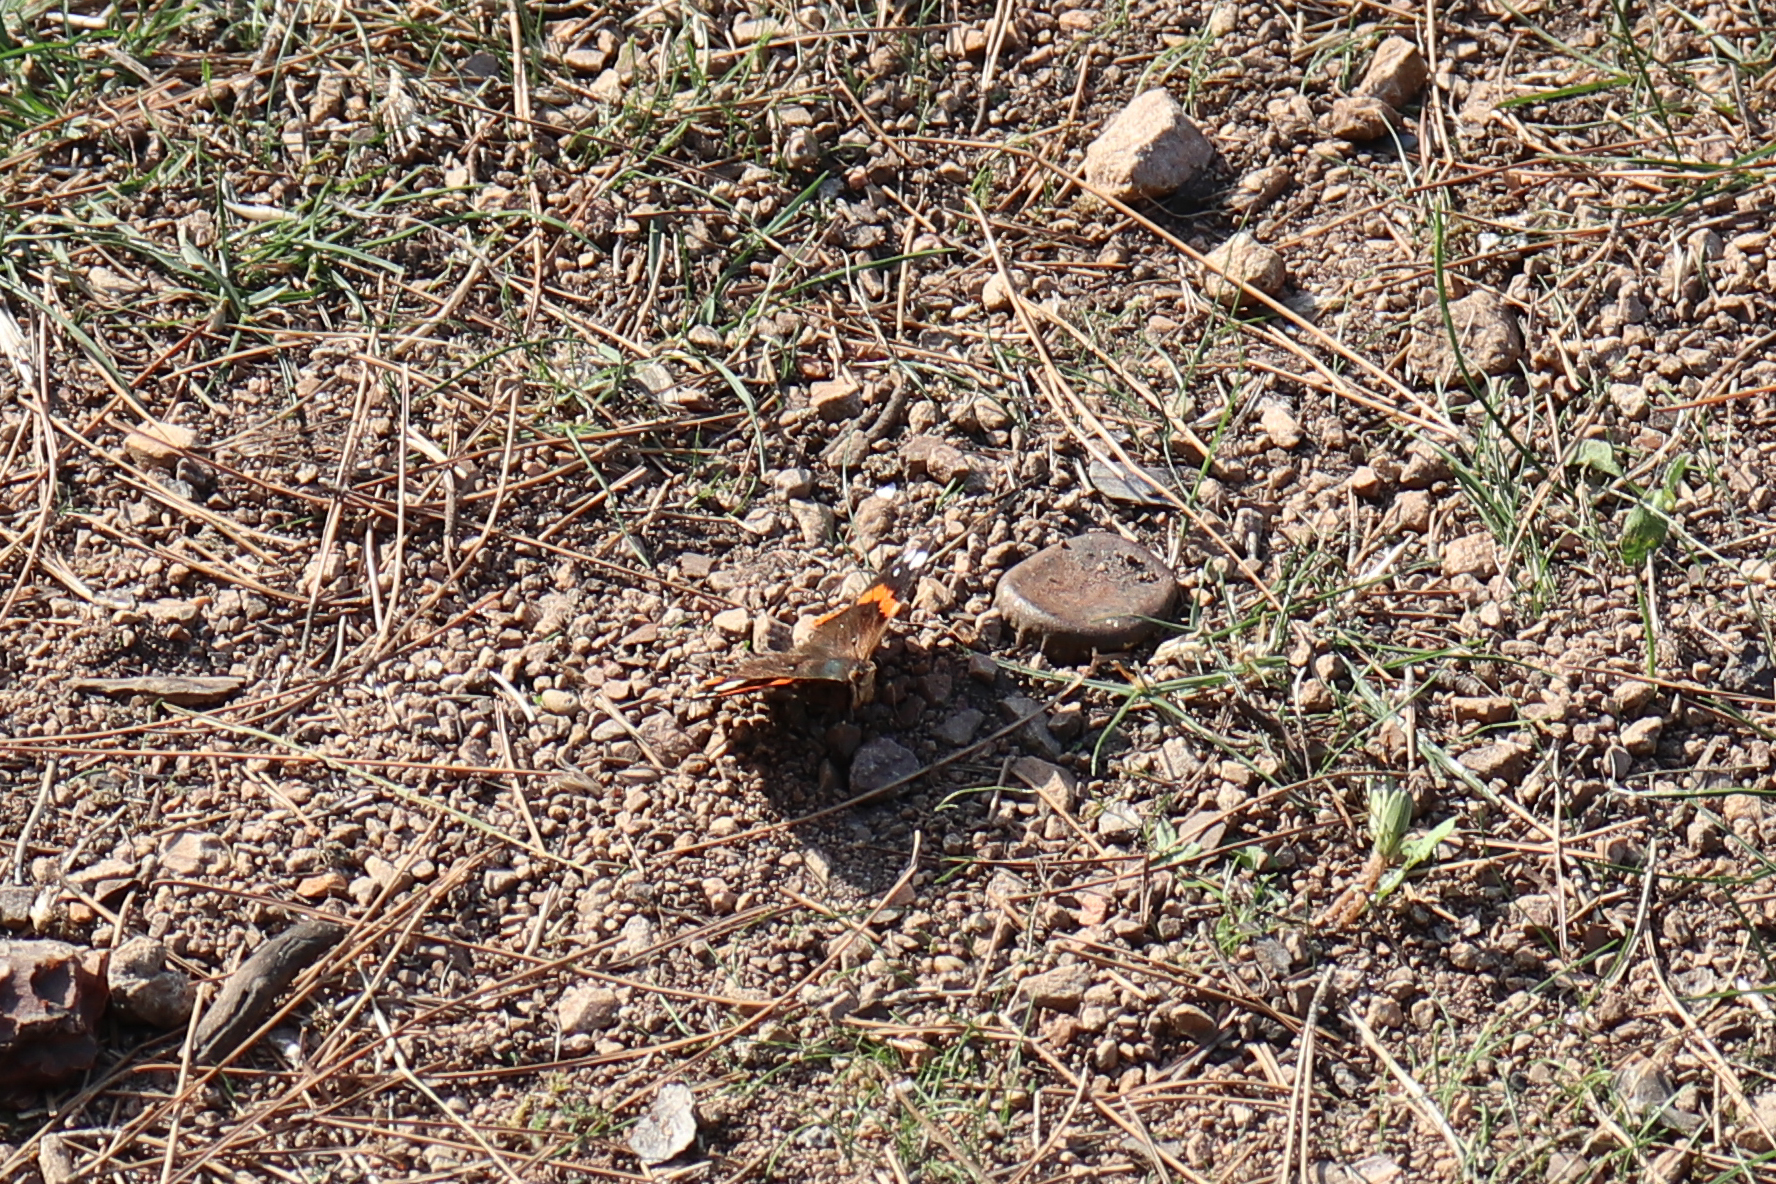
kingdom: Animalia
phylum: Arthropoda
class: Insecta
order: Lepidoptera
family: Nymphalidae
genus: Vanessa
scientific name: Vanessa atalanta
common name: Red admiral
